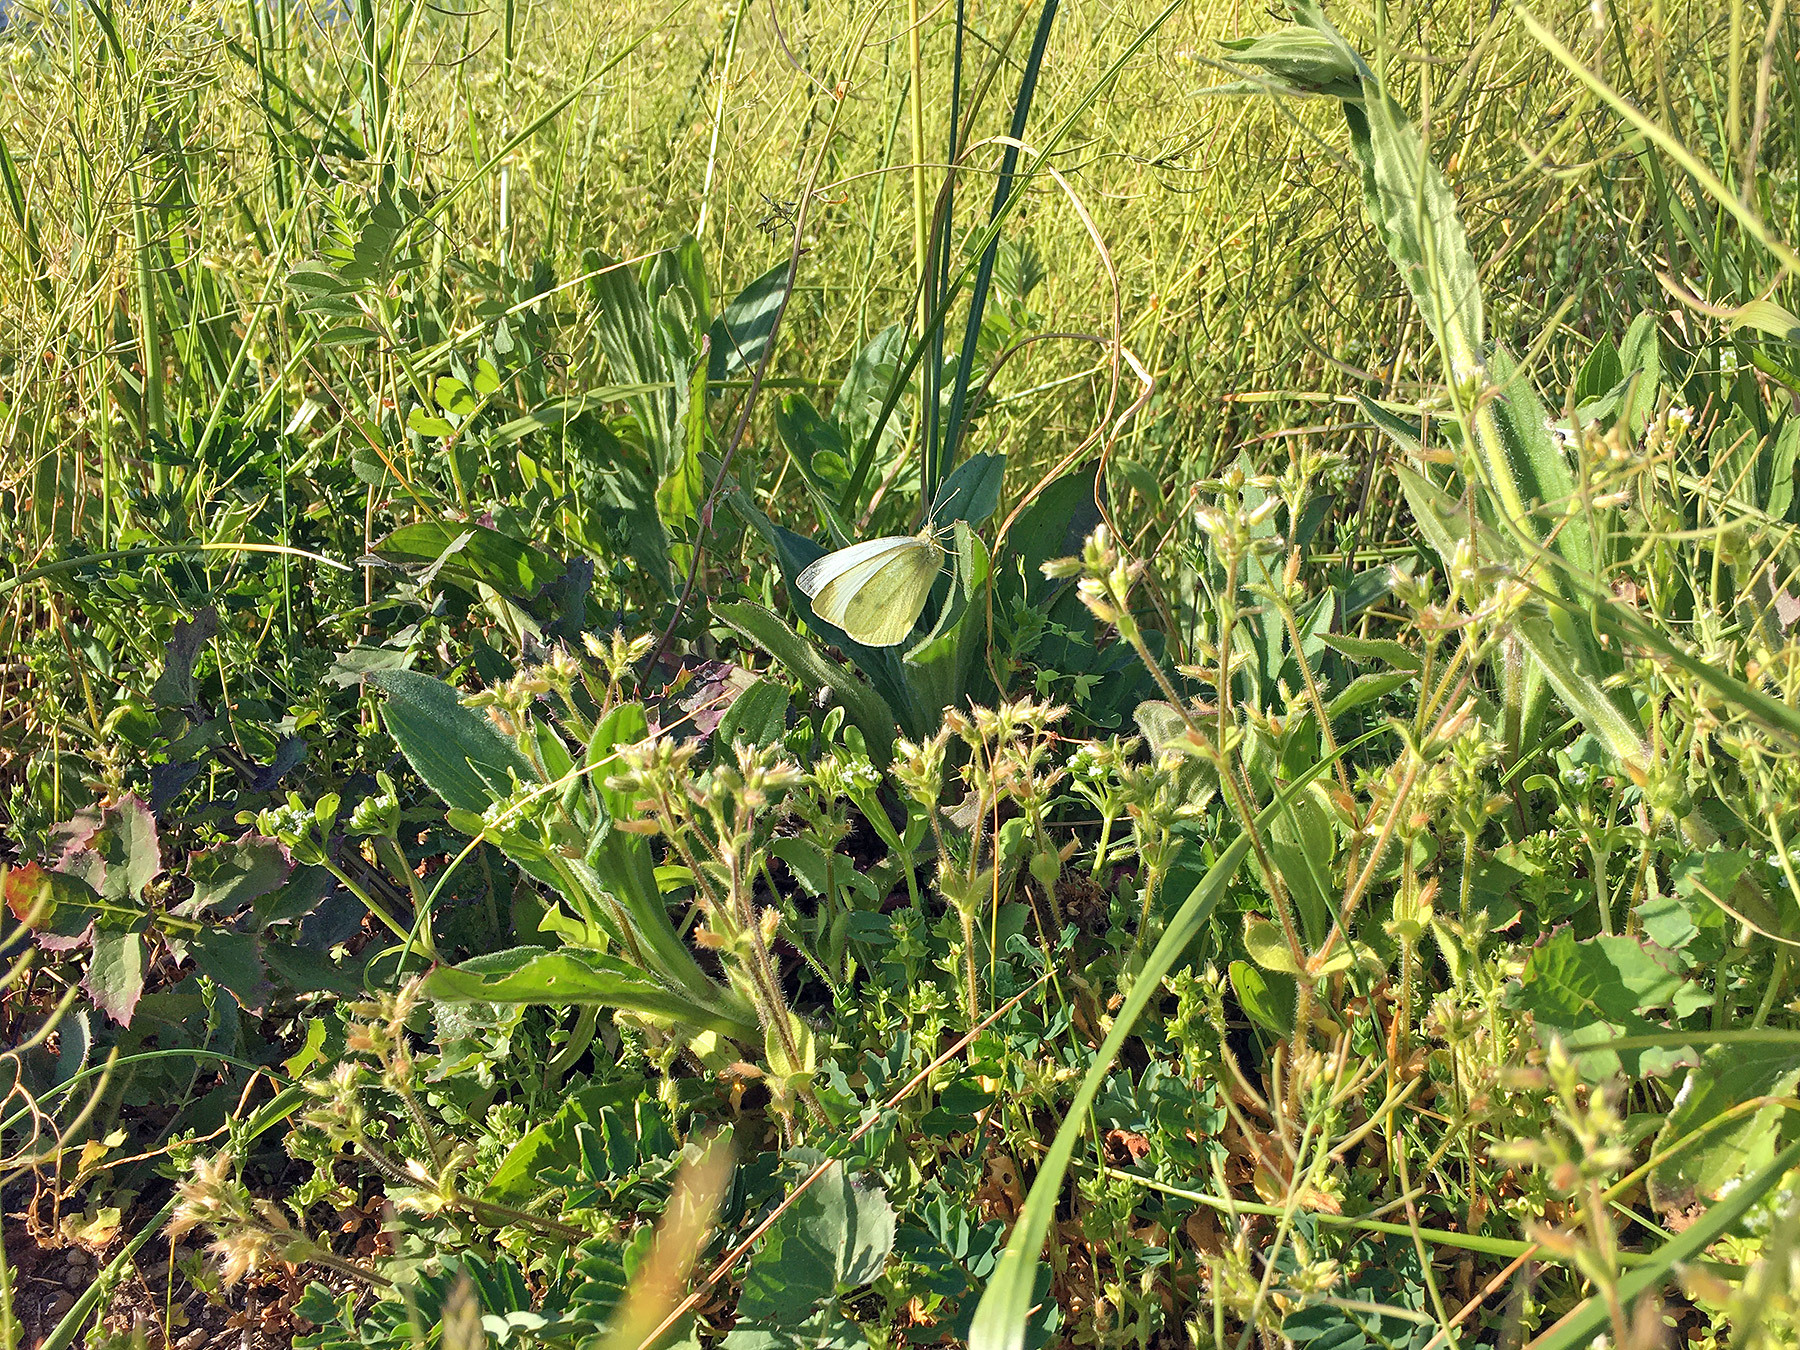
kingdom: Animalia
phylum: Arthropoda
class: Insecta
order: Lepidoptera
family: Pieridae
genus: Pieris
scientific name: Pieris rapae
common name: Small white
